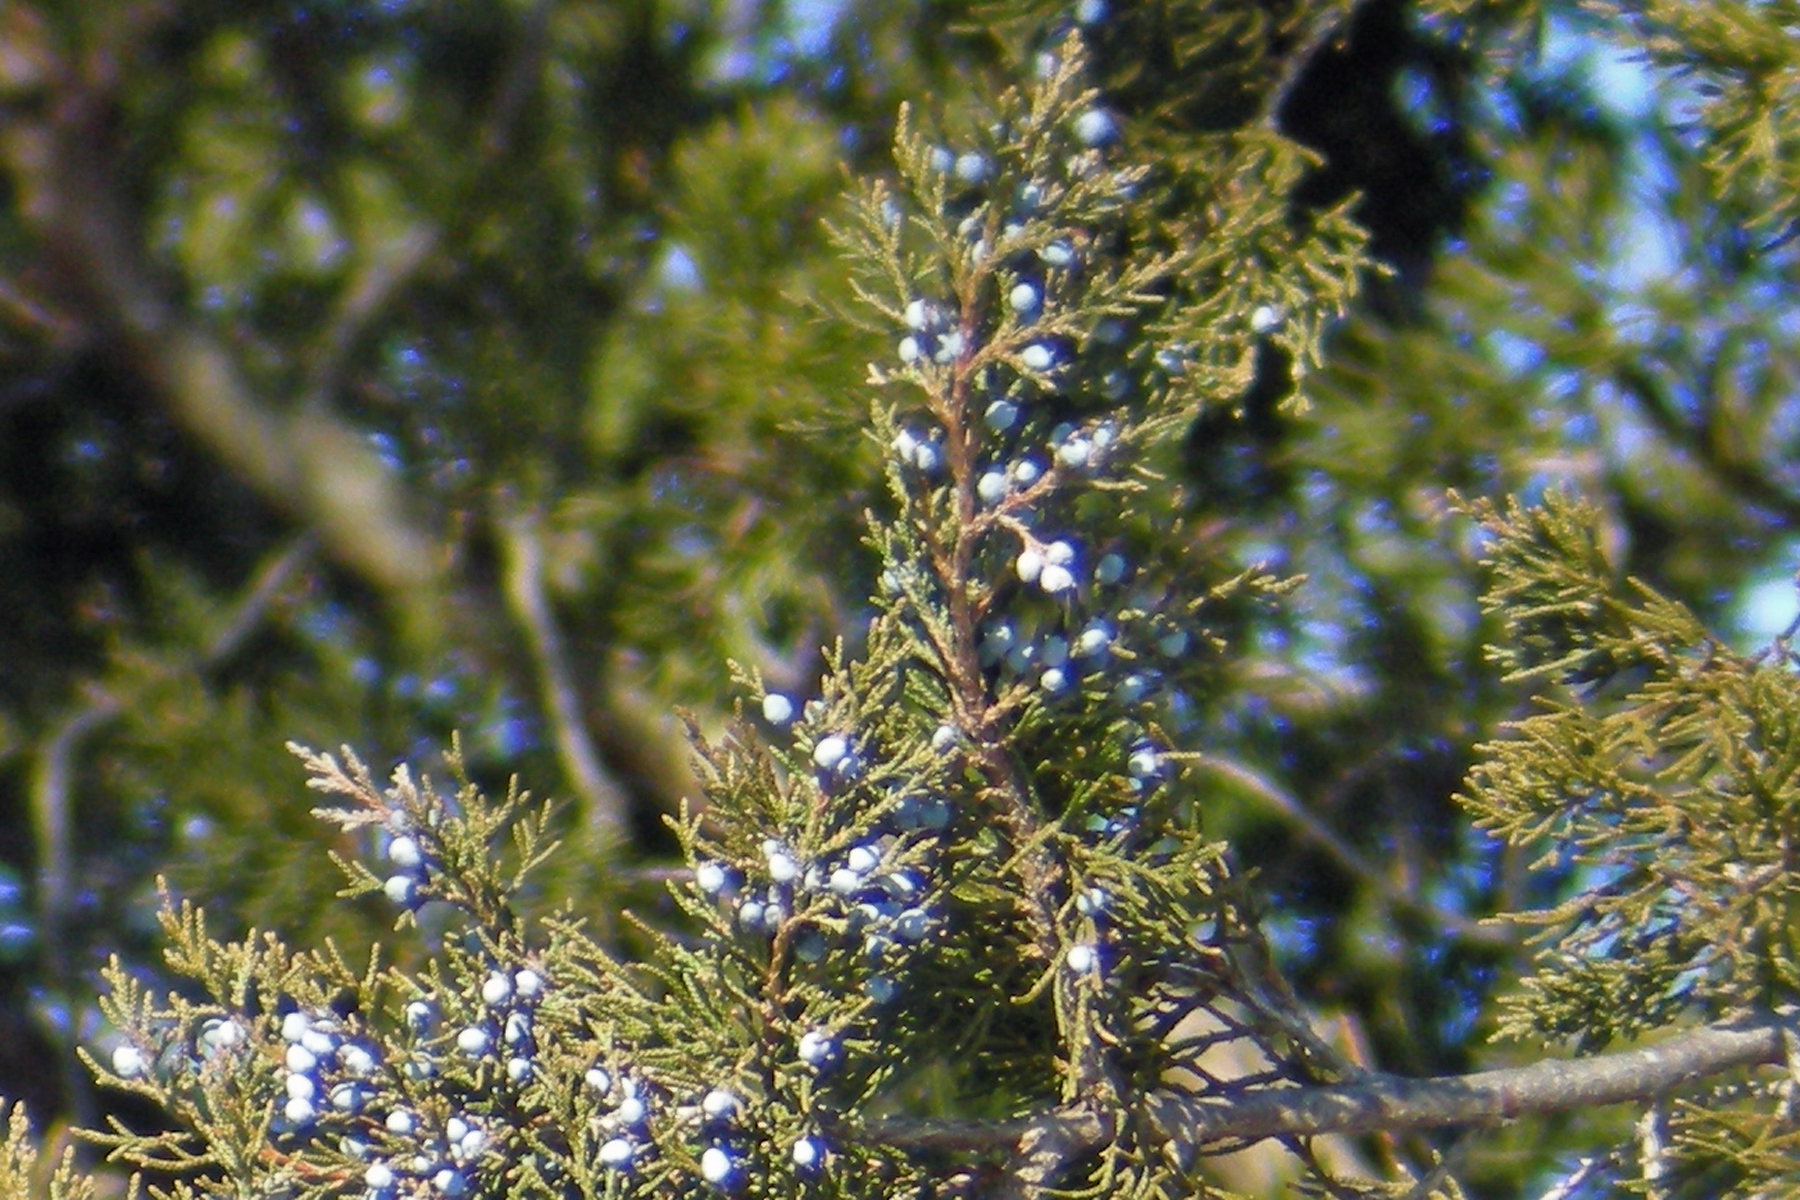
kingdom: Plantae
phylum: Tracheophyta
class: Pinopsida
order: Pinales
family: Cupressaceae
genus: Juniperus
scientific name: Juniperus virginiana
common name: Red juniper
